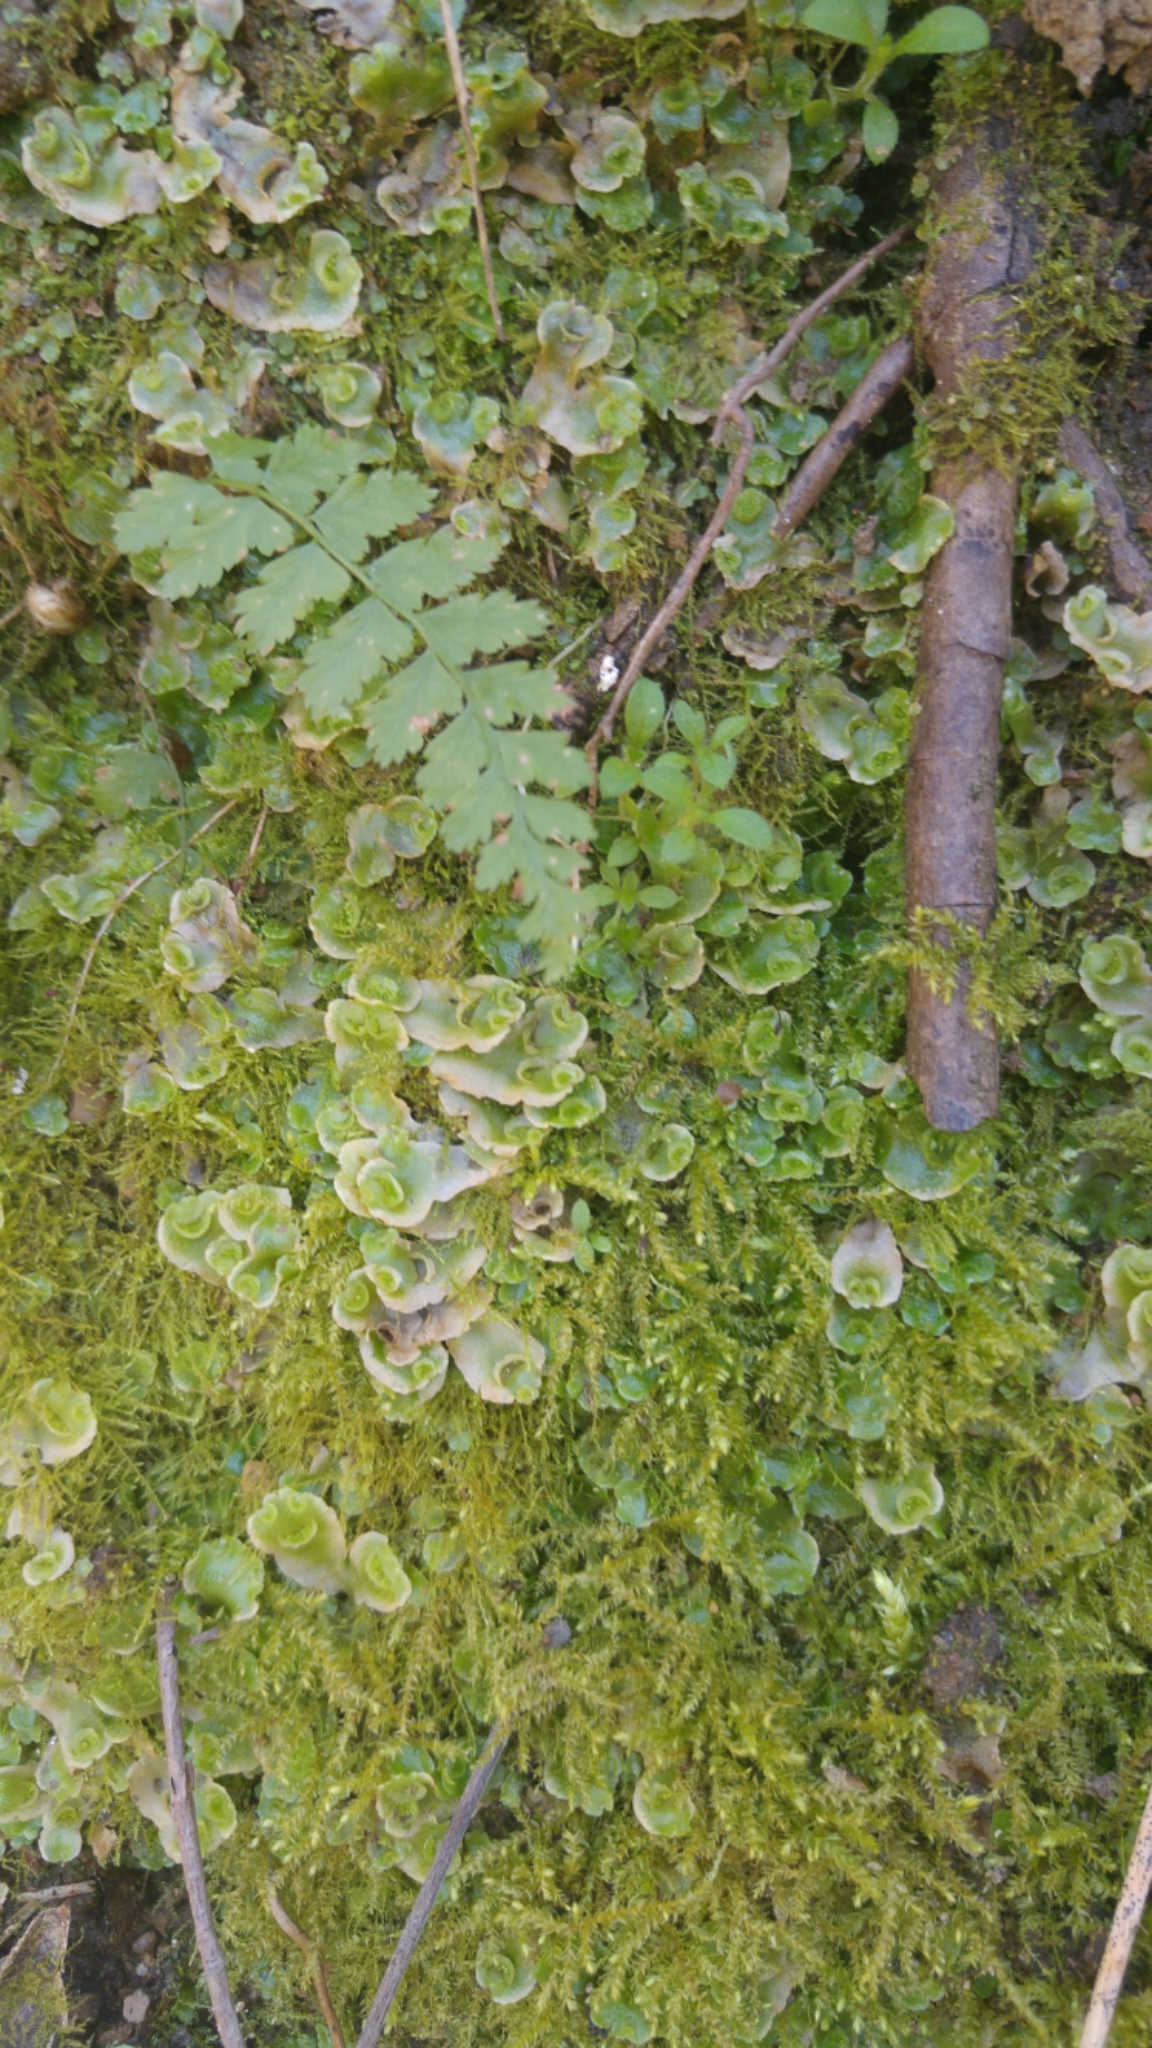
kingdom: Plantae
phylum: Marchantiophyta
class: Marchantiopsida
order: Lunulariales
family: Lunulariaceae
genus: Lunularia
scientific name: Lunularia cruciata
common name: Crescent-cup liverwort
